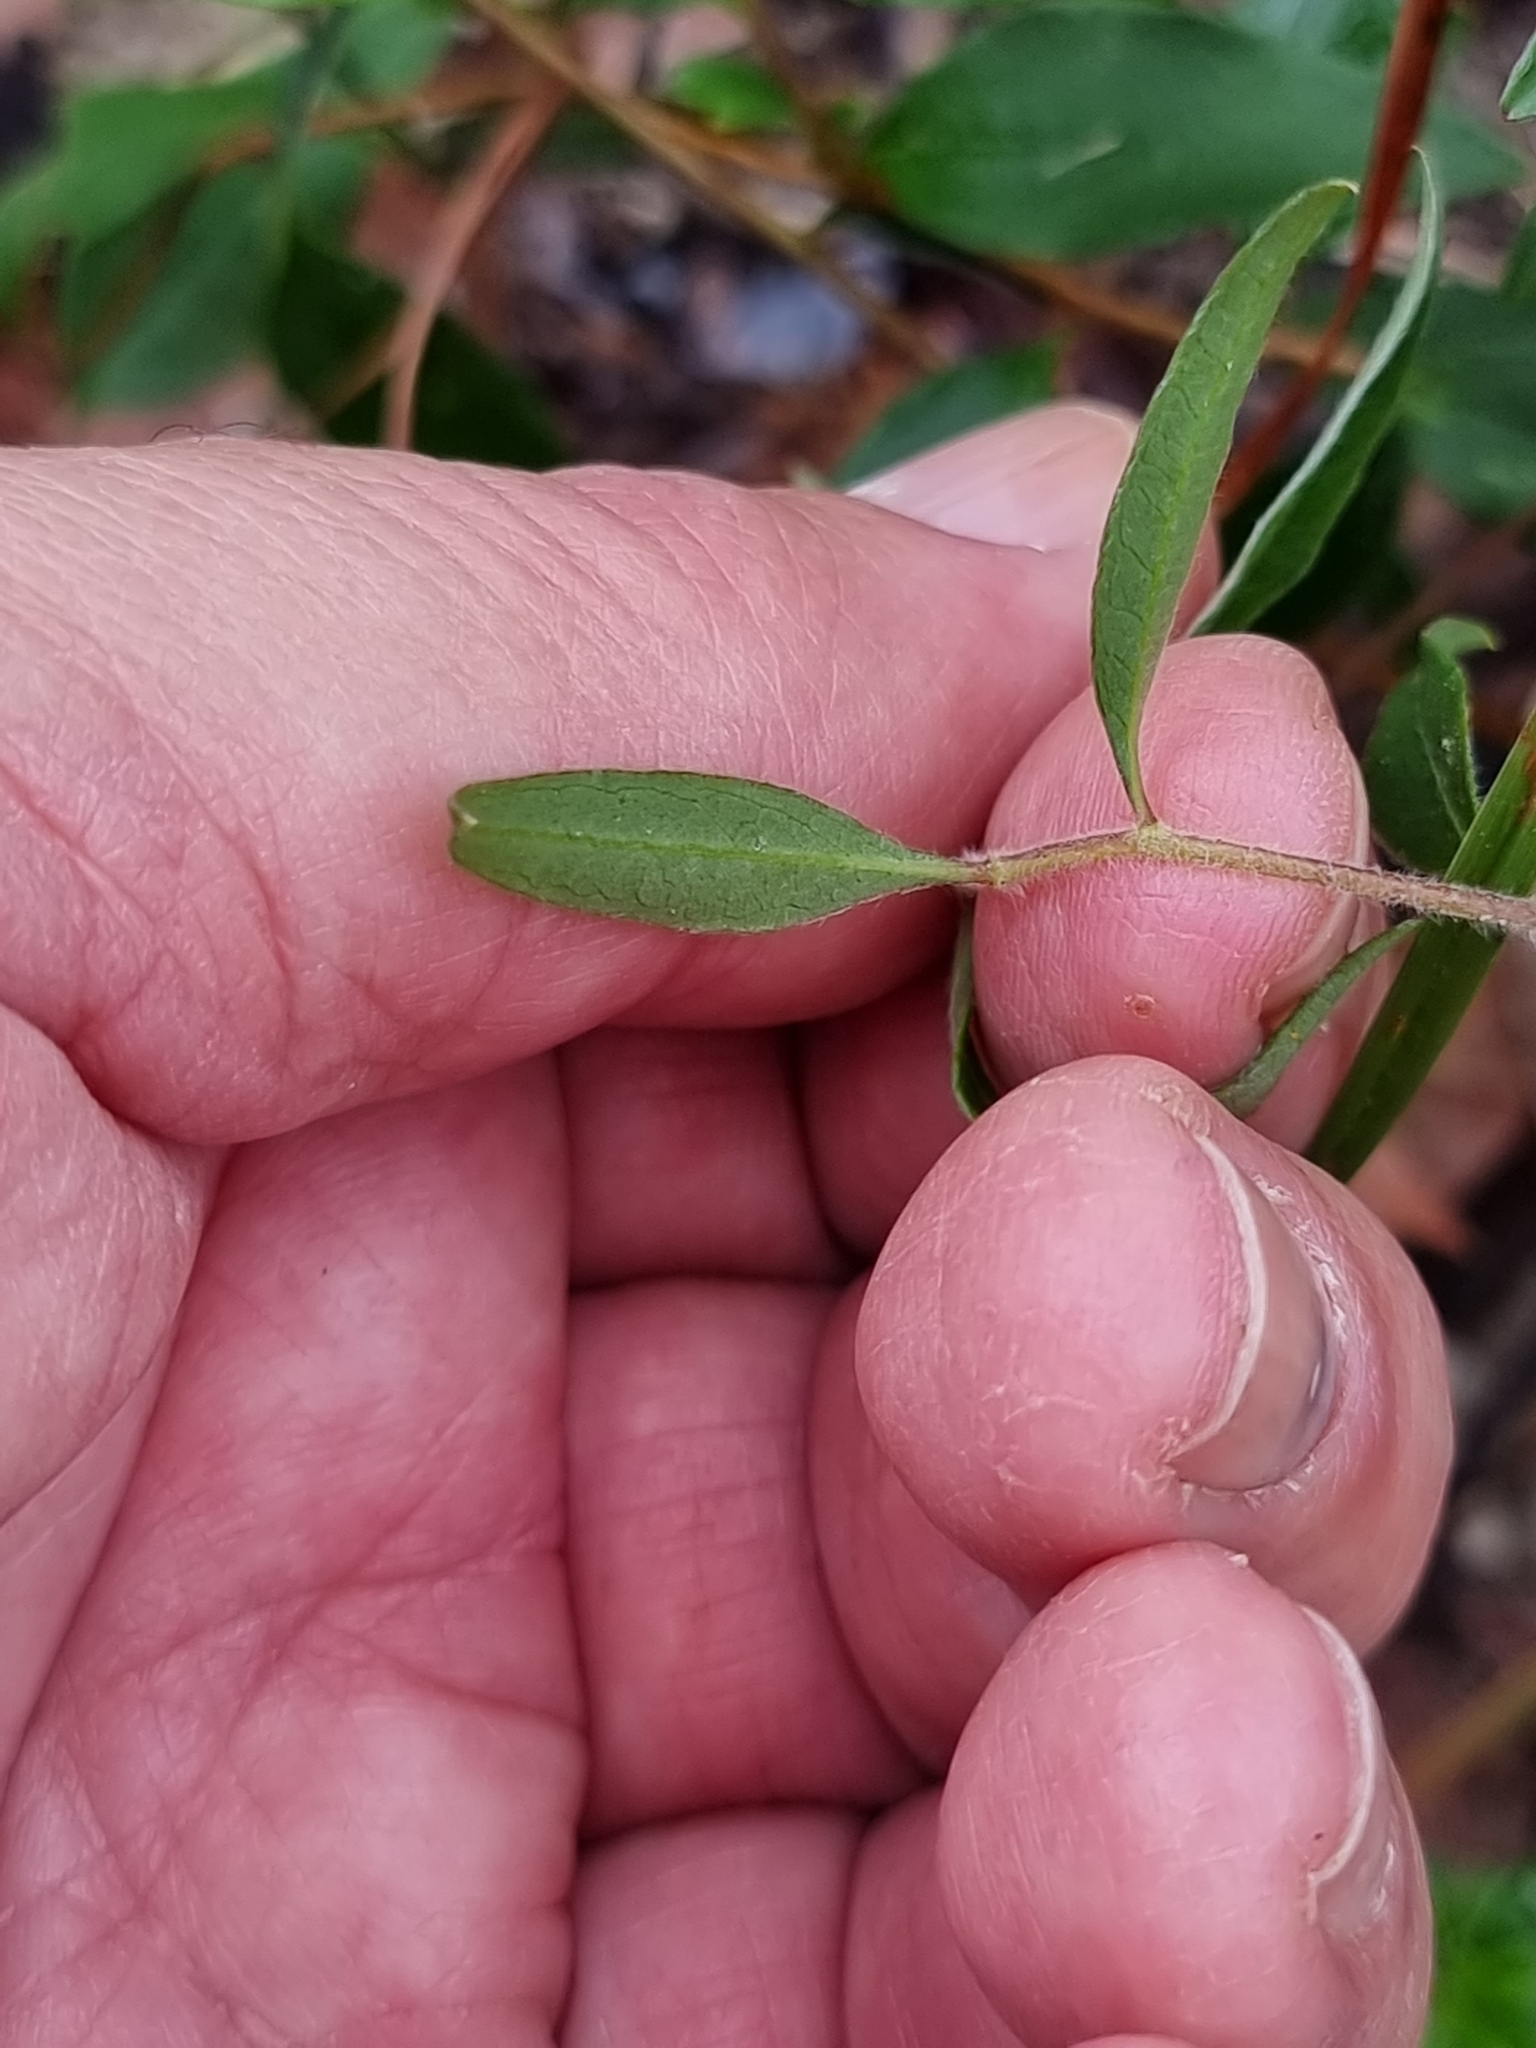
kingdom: Plantae
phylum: Tracheophyta
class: Magnoliopsida
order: Apiales
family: Pittosporaceae
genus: Billardiera
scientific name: Billardiera scandens
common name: Apple-berry
